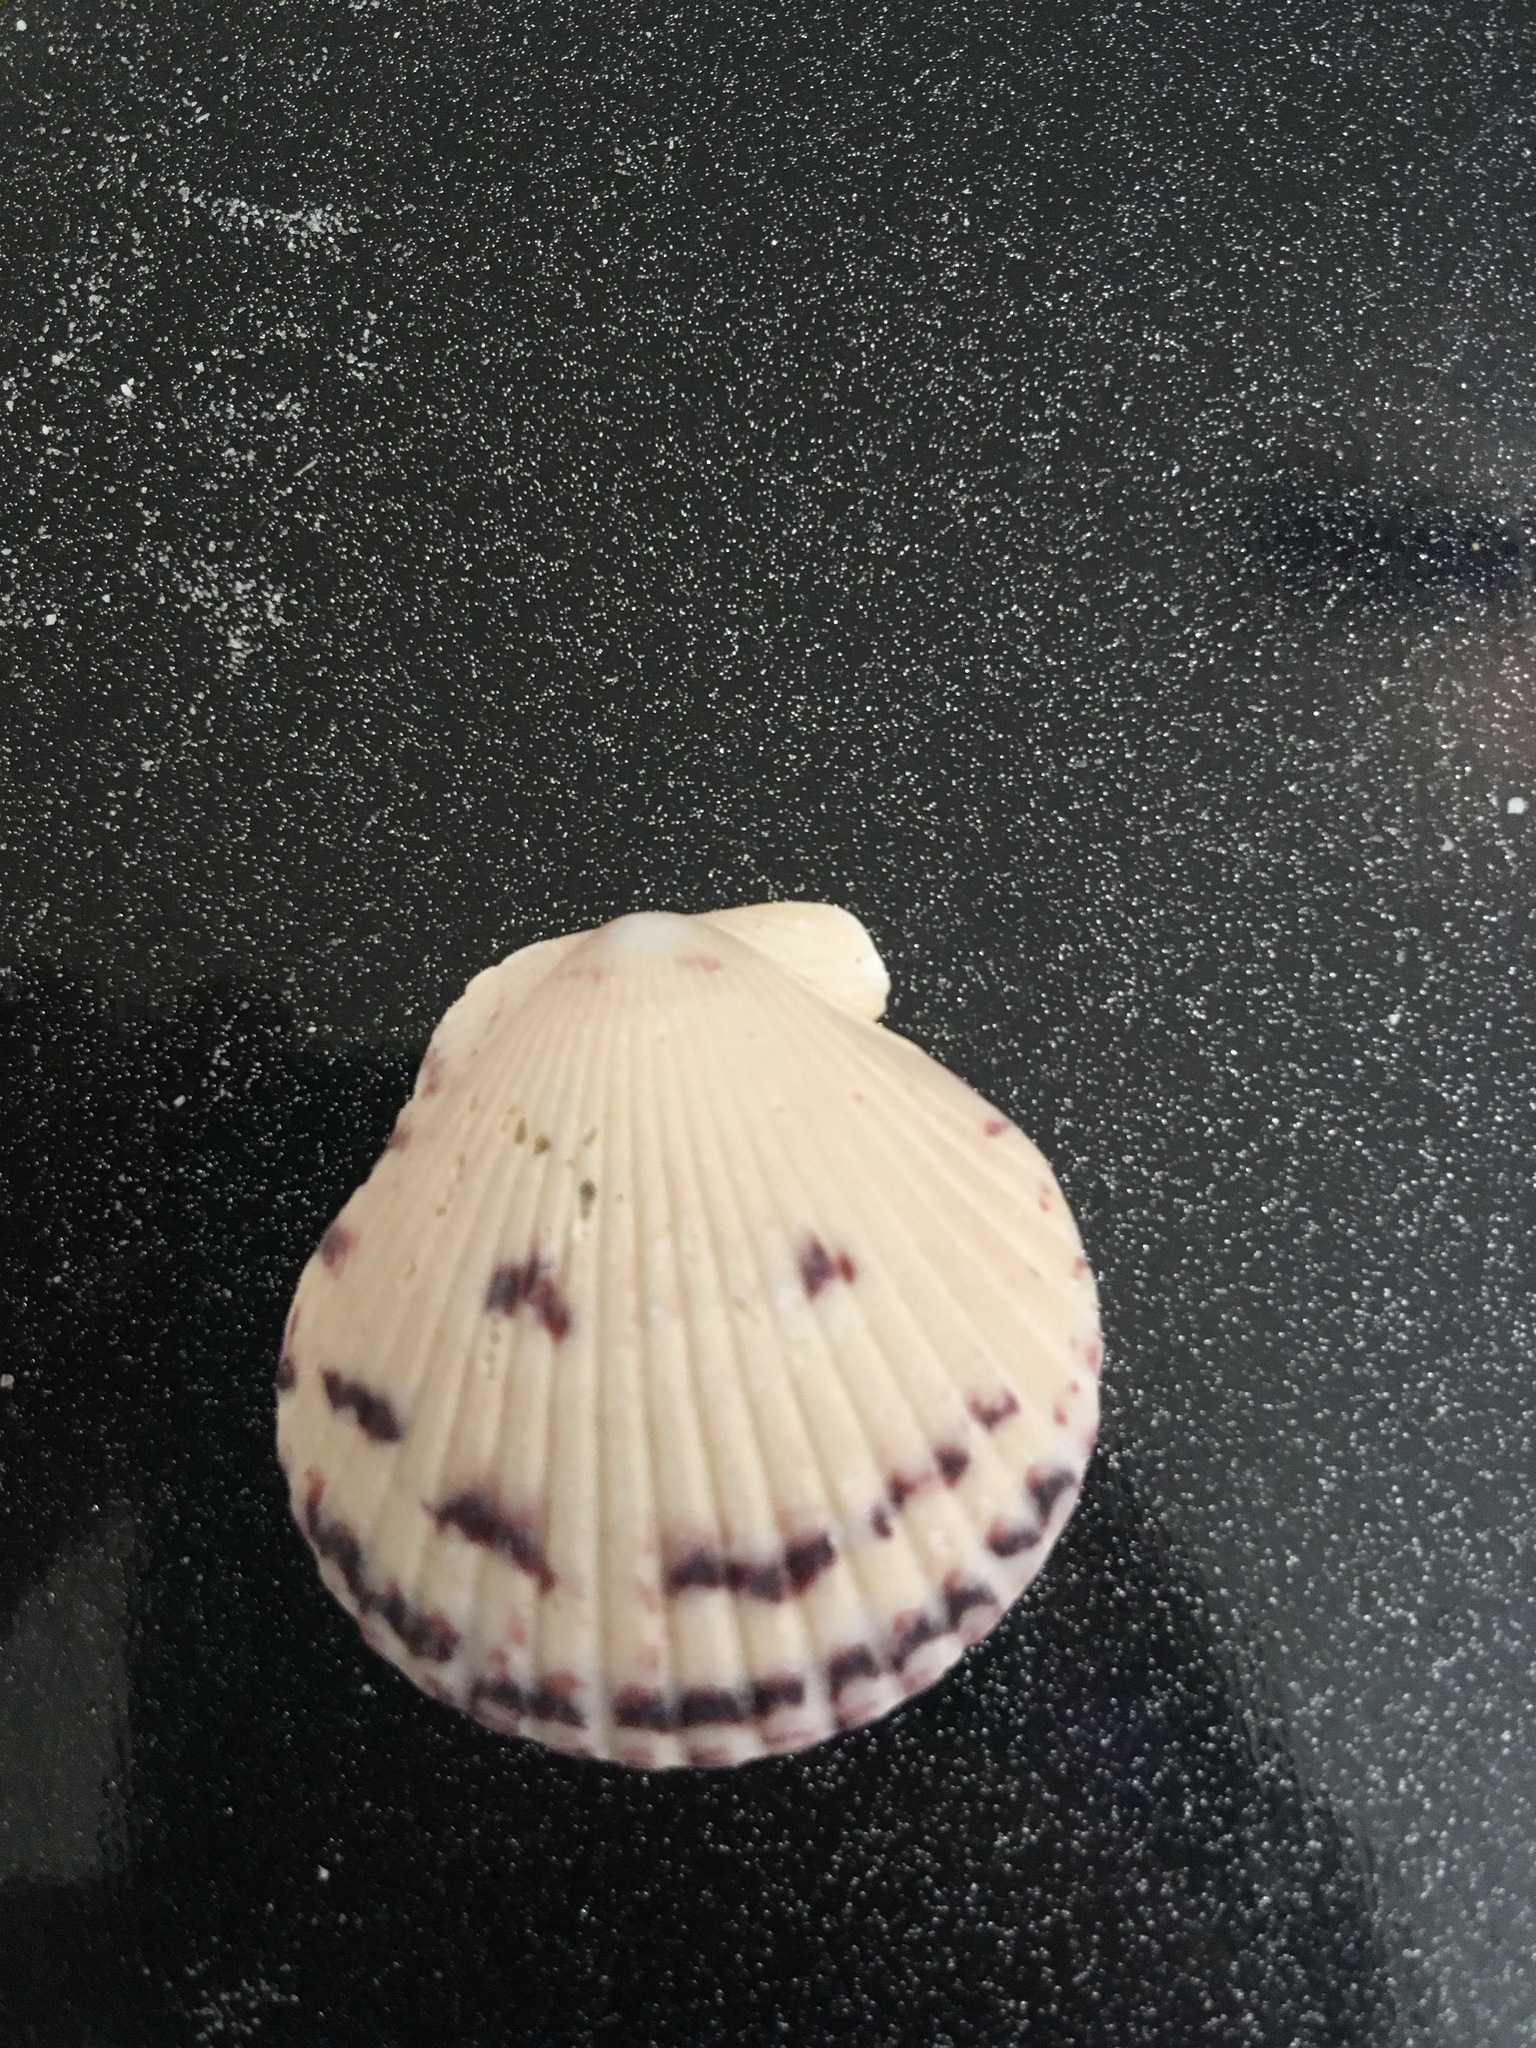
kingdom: Animalia
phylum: Mollusca
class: Bivalvia
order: Pectinida
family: Pectinidae
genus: Argopecten
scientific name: Argopecten gibbus
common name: Atlantic calico scallop
